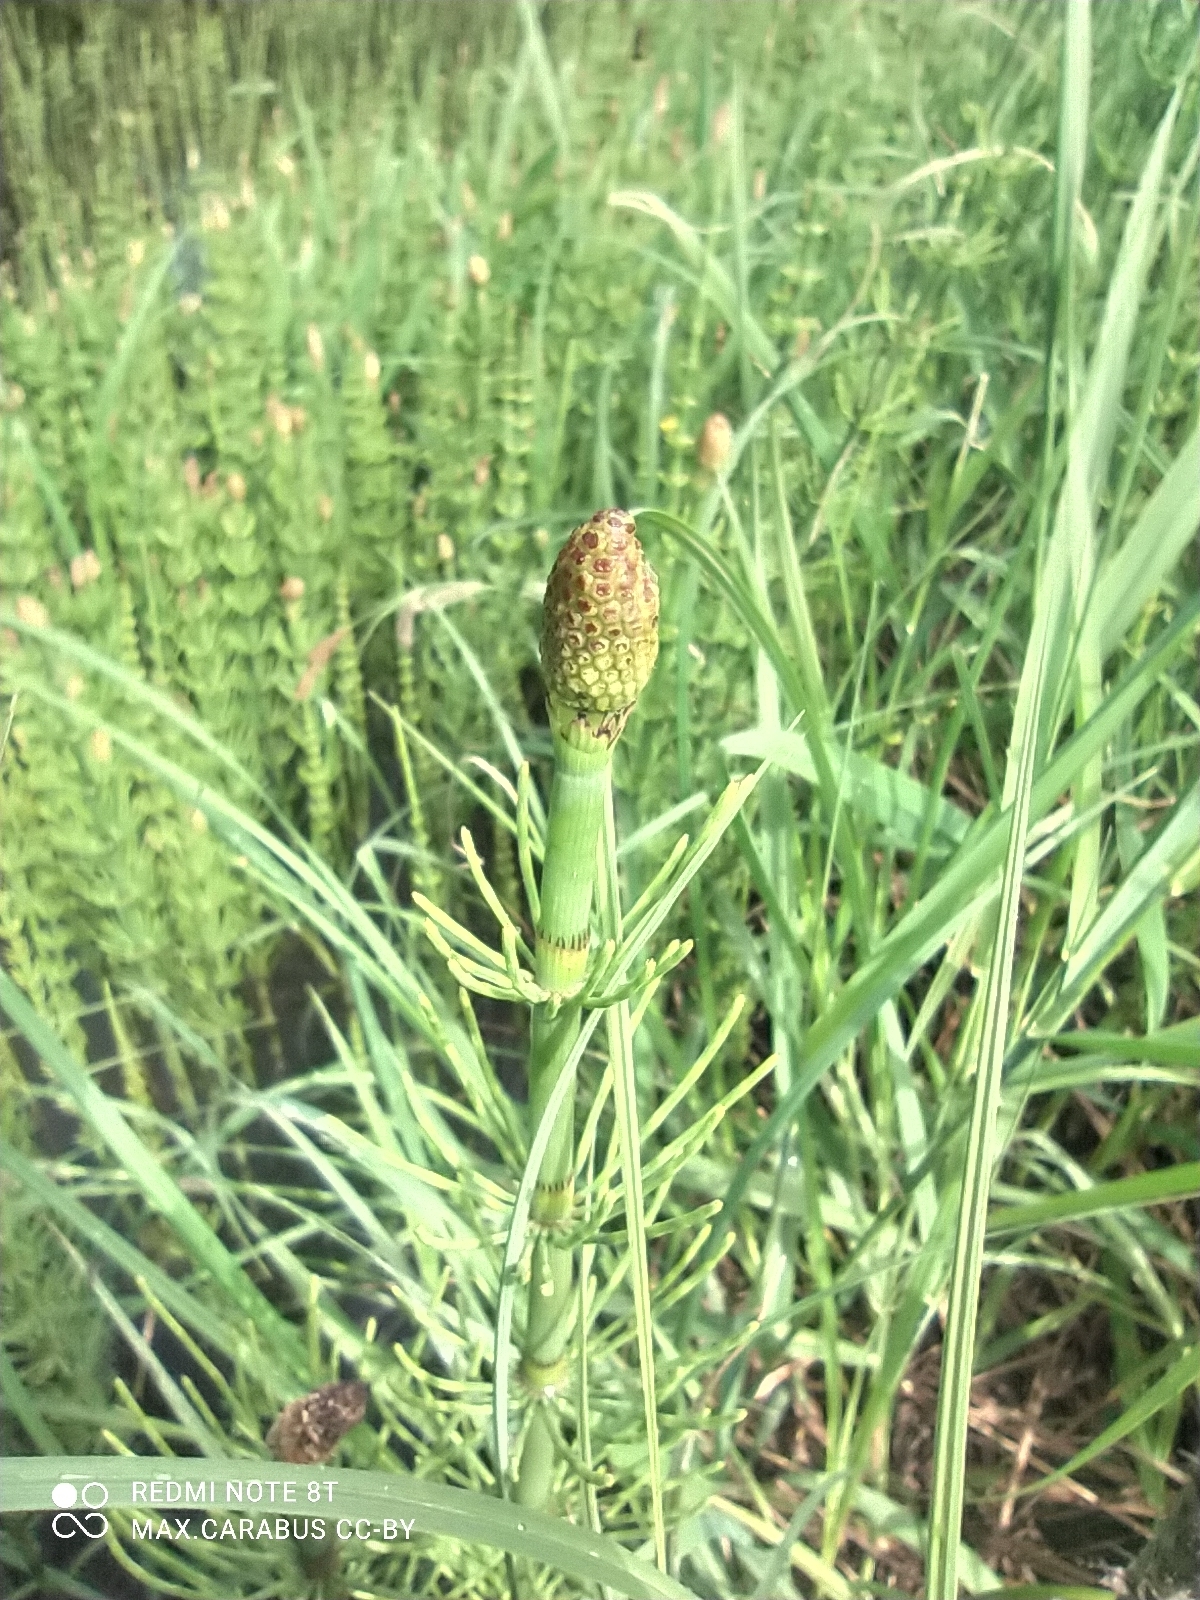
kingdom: Plantae
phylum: Tracheophyta
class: Polypodiopsida
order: Equisetales
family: Equisetaceae
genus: Equisetum
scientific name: Equisetum fluviatile
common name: Water horsetail
